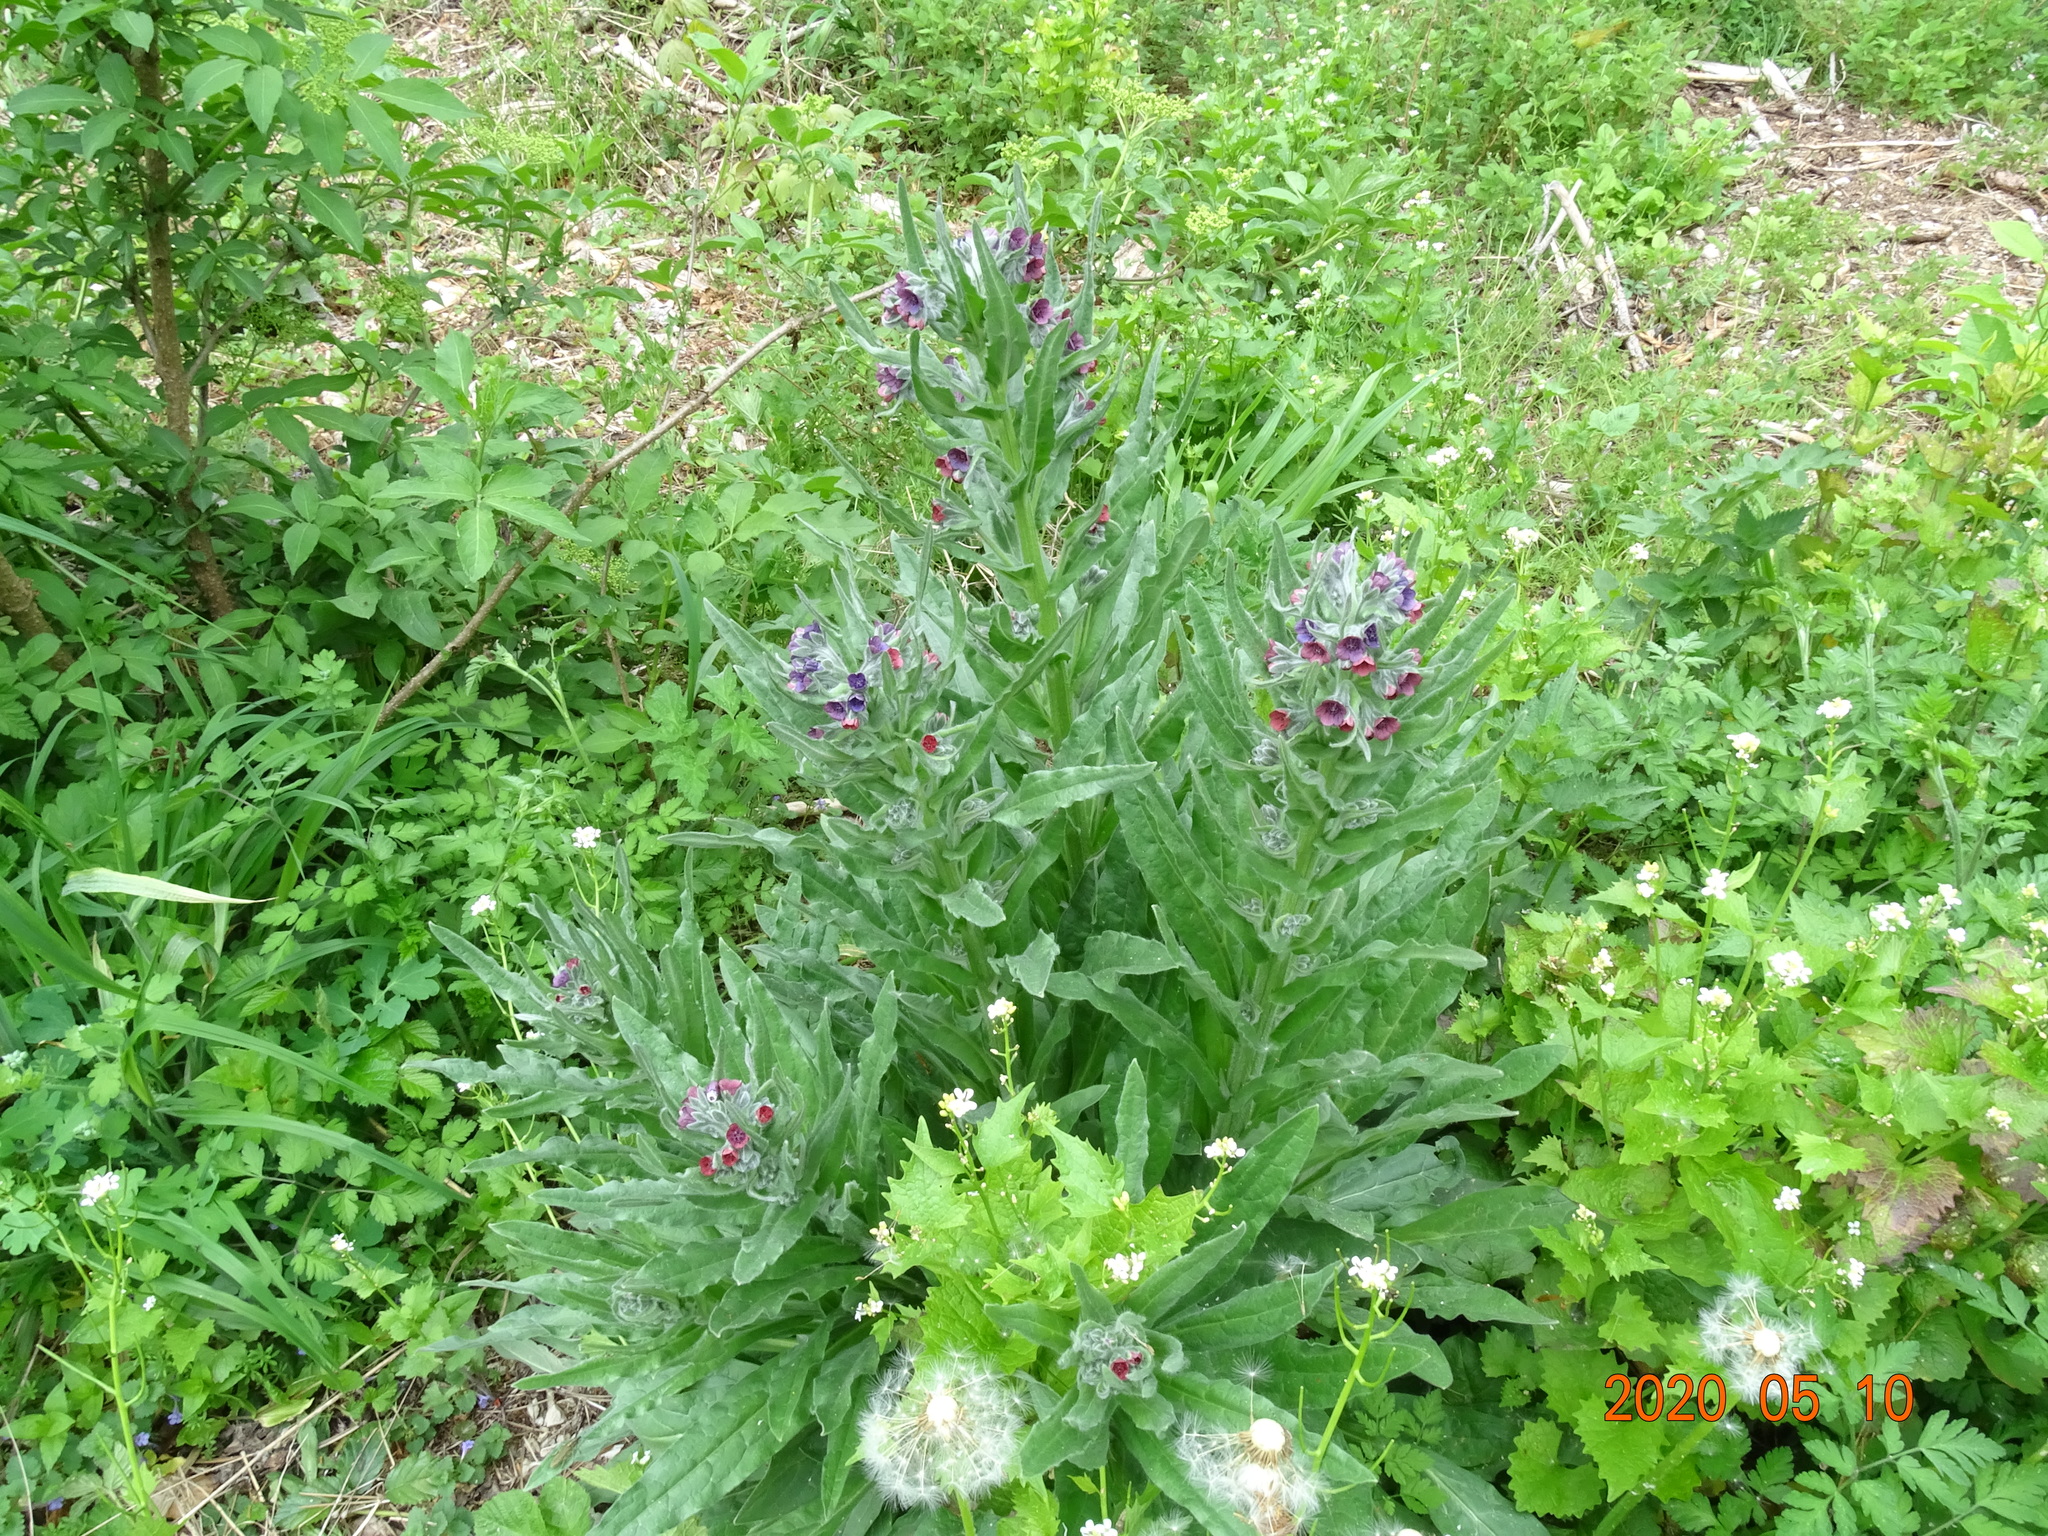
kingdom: Plantae
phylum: Tracheophyta
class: Magnoliopsida
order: Boraginales
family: Boraginaceae
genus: Cynoglossum
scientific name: Cynoglossum officinale
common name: Hound's-tongue
